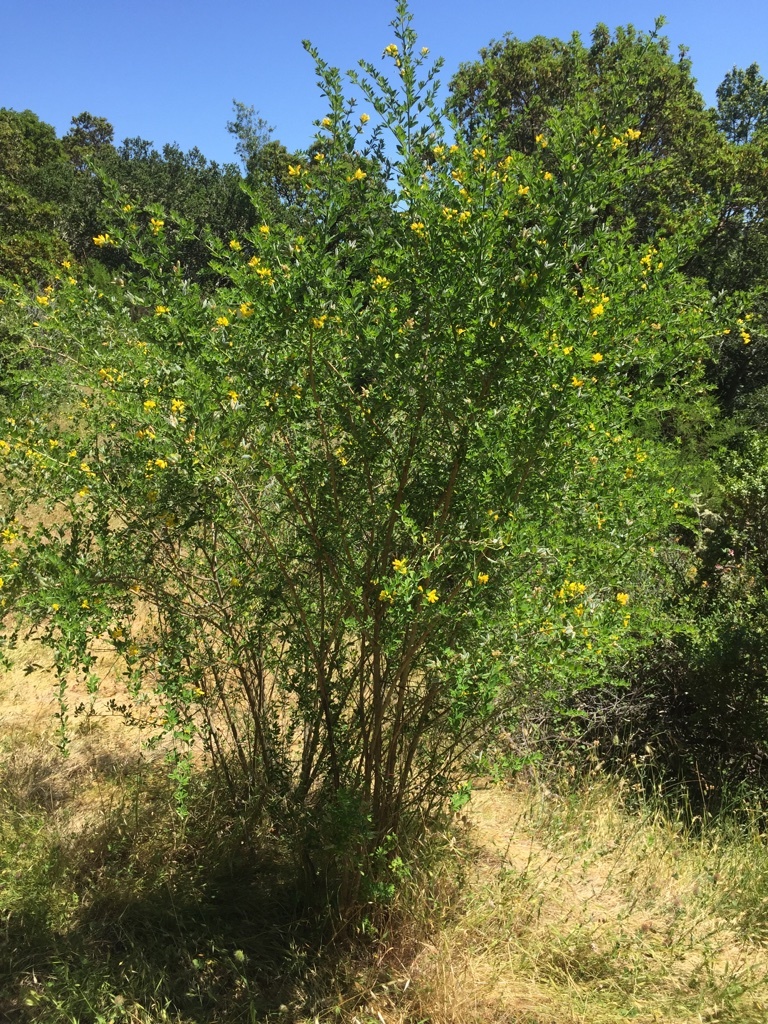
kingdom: Plantae
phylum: Tracheophyta
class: Magnoliopsida
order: Fabales
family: Fabaceae
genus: Genista
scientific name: Genista monspessulana
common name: Montpellier broom
